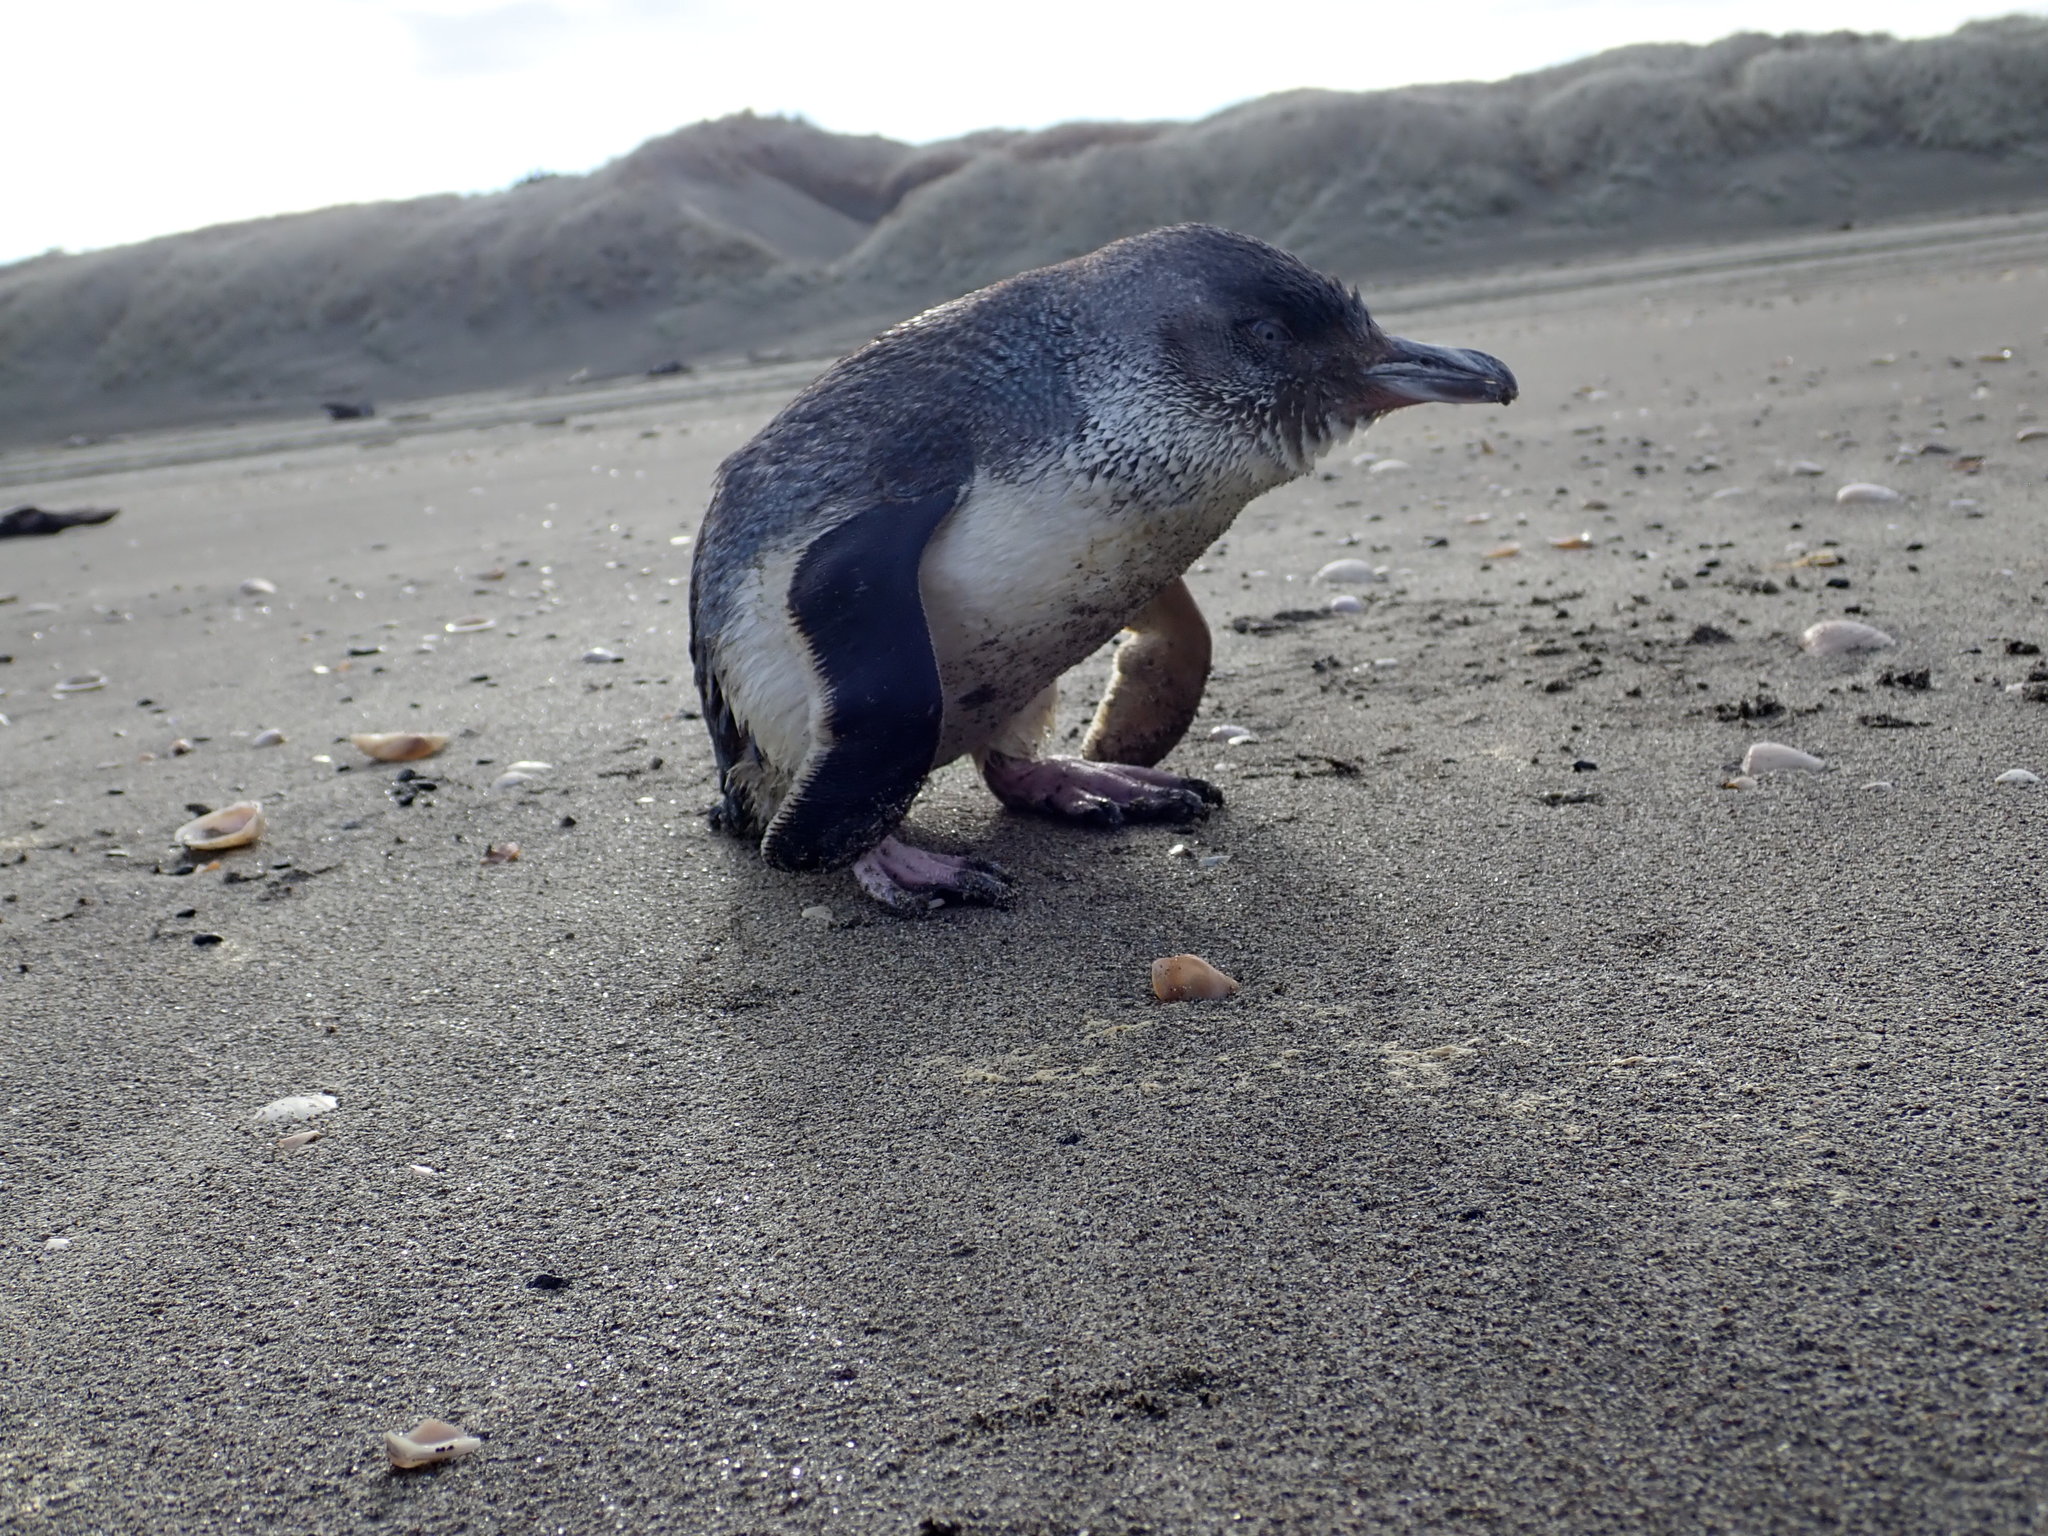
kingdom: Animalia
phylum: Chordata
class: Aves
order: Sphenisciformes
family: Spheniscidae
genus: Eudyptula
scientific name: Eudyptula minor
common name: Little penguin
